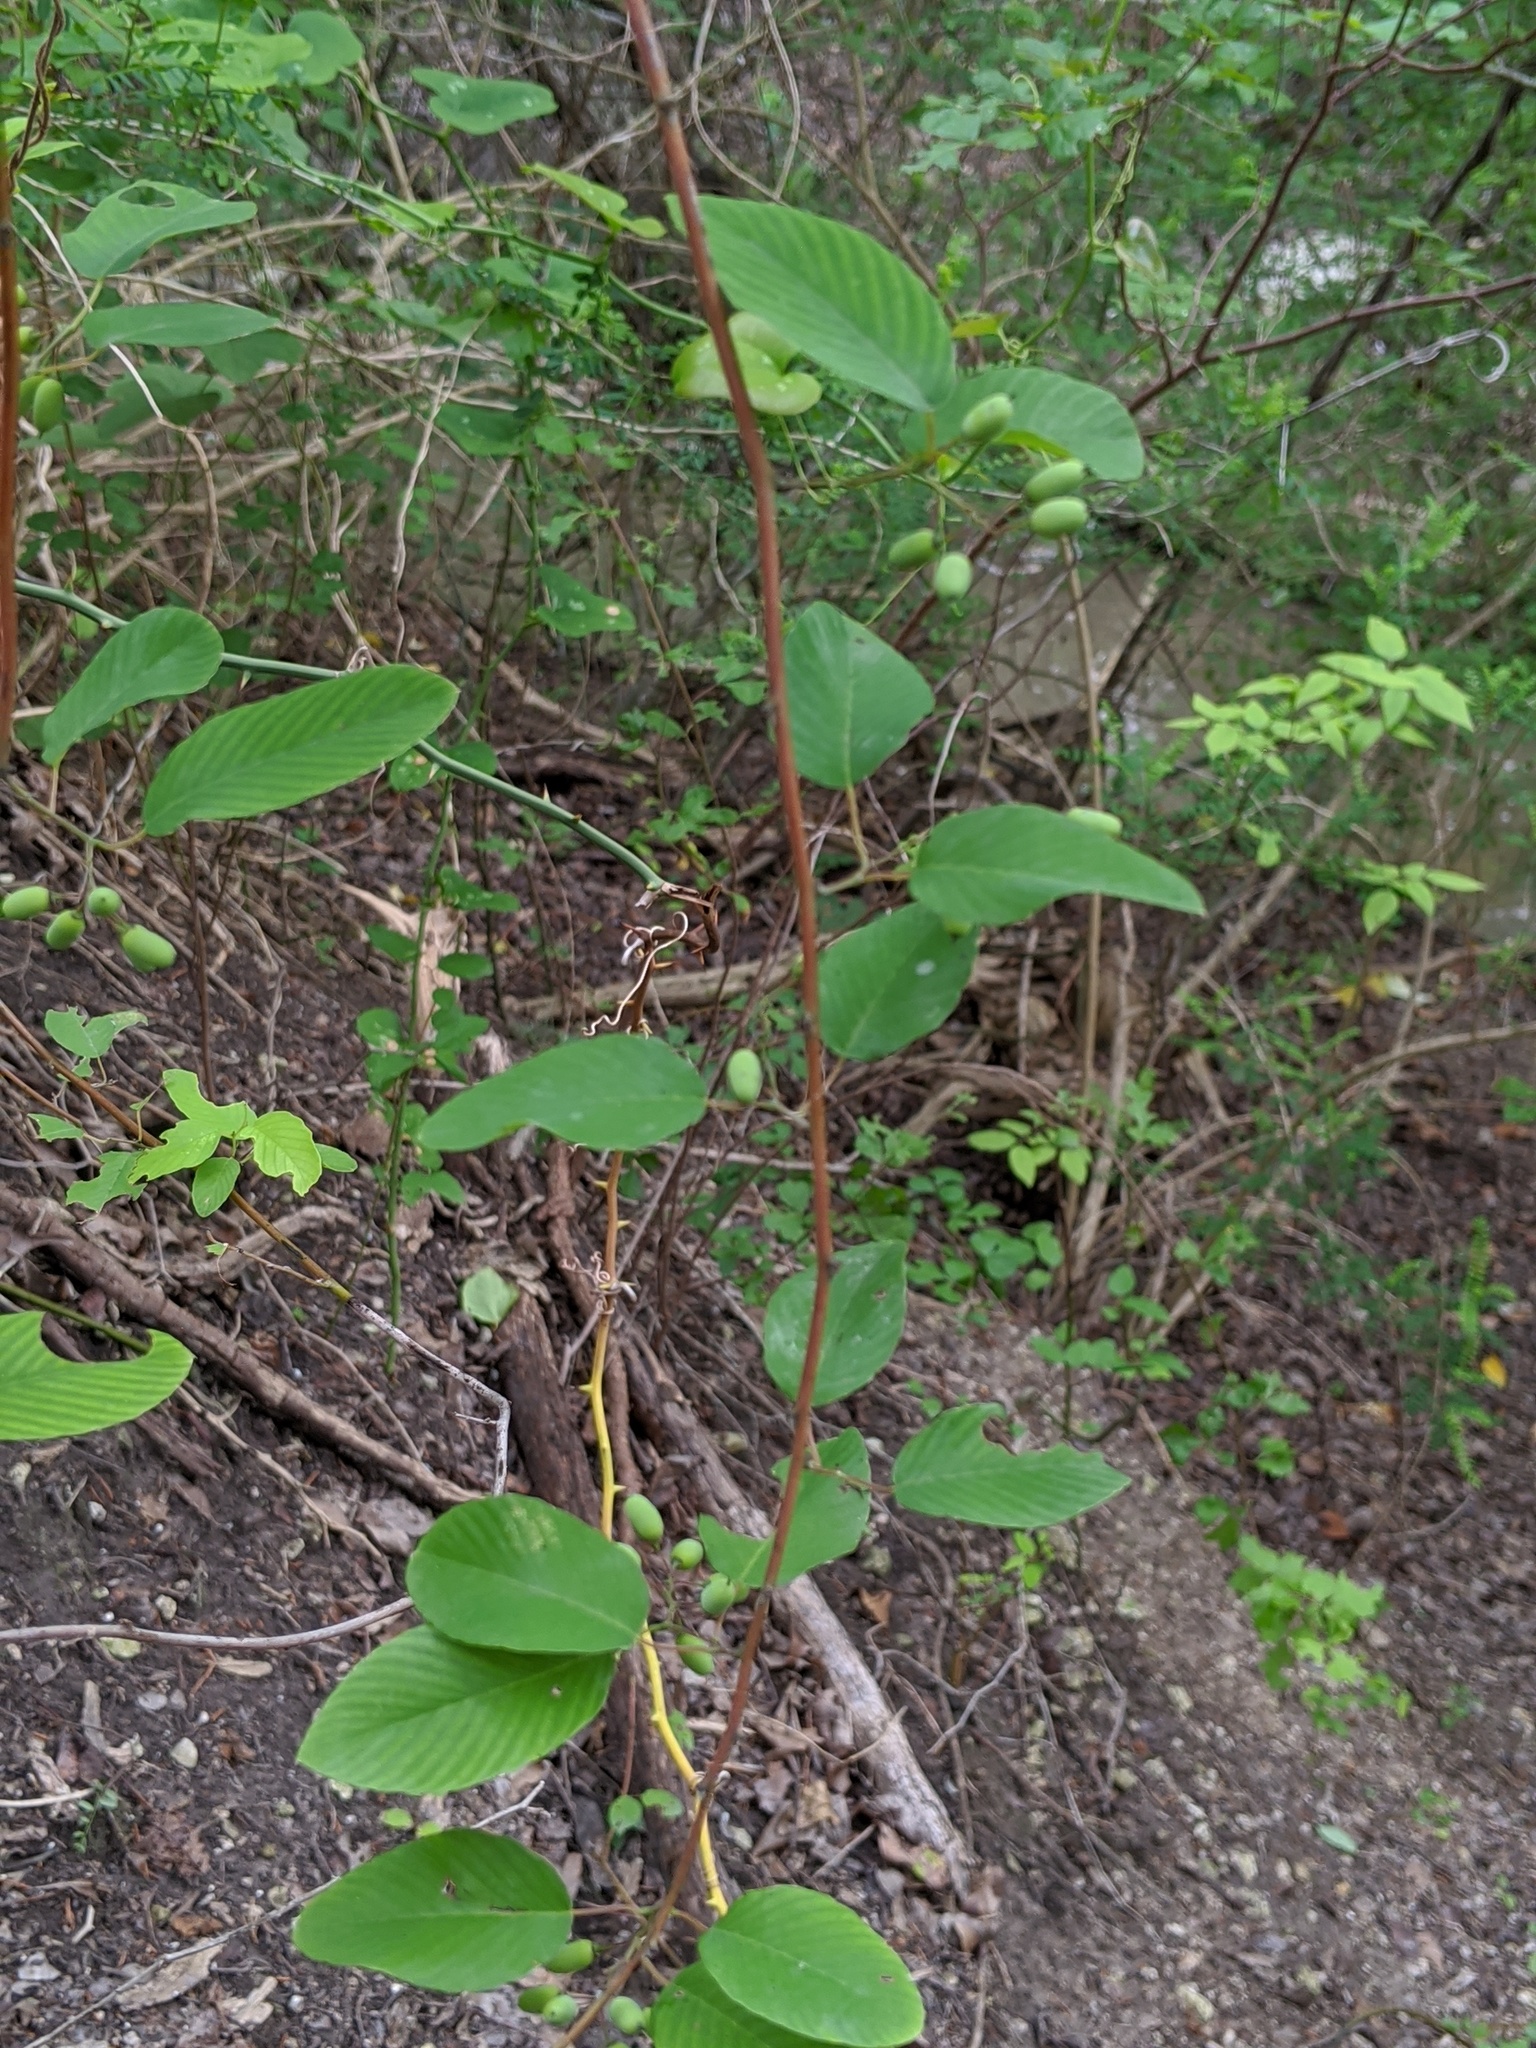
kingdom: Plantae
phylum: Tracheophyta
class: Magnoliopsida
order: Rosales
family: Rhamnaceae
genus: Berchemia
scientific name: Berchemia scandens
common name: Supplejack
